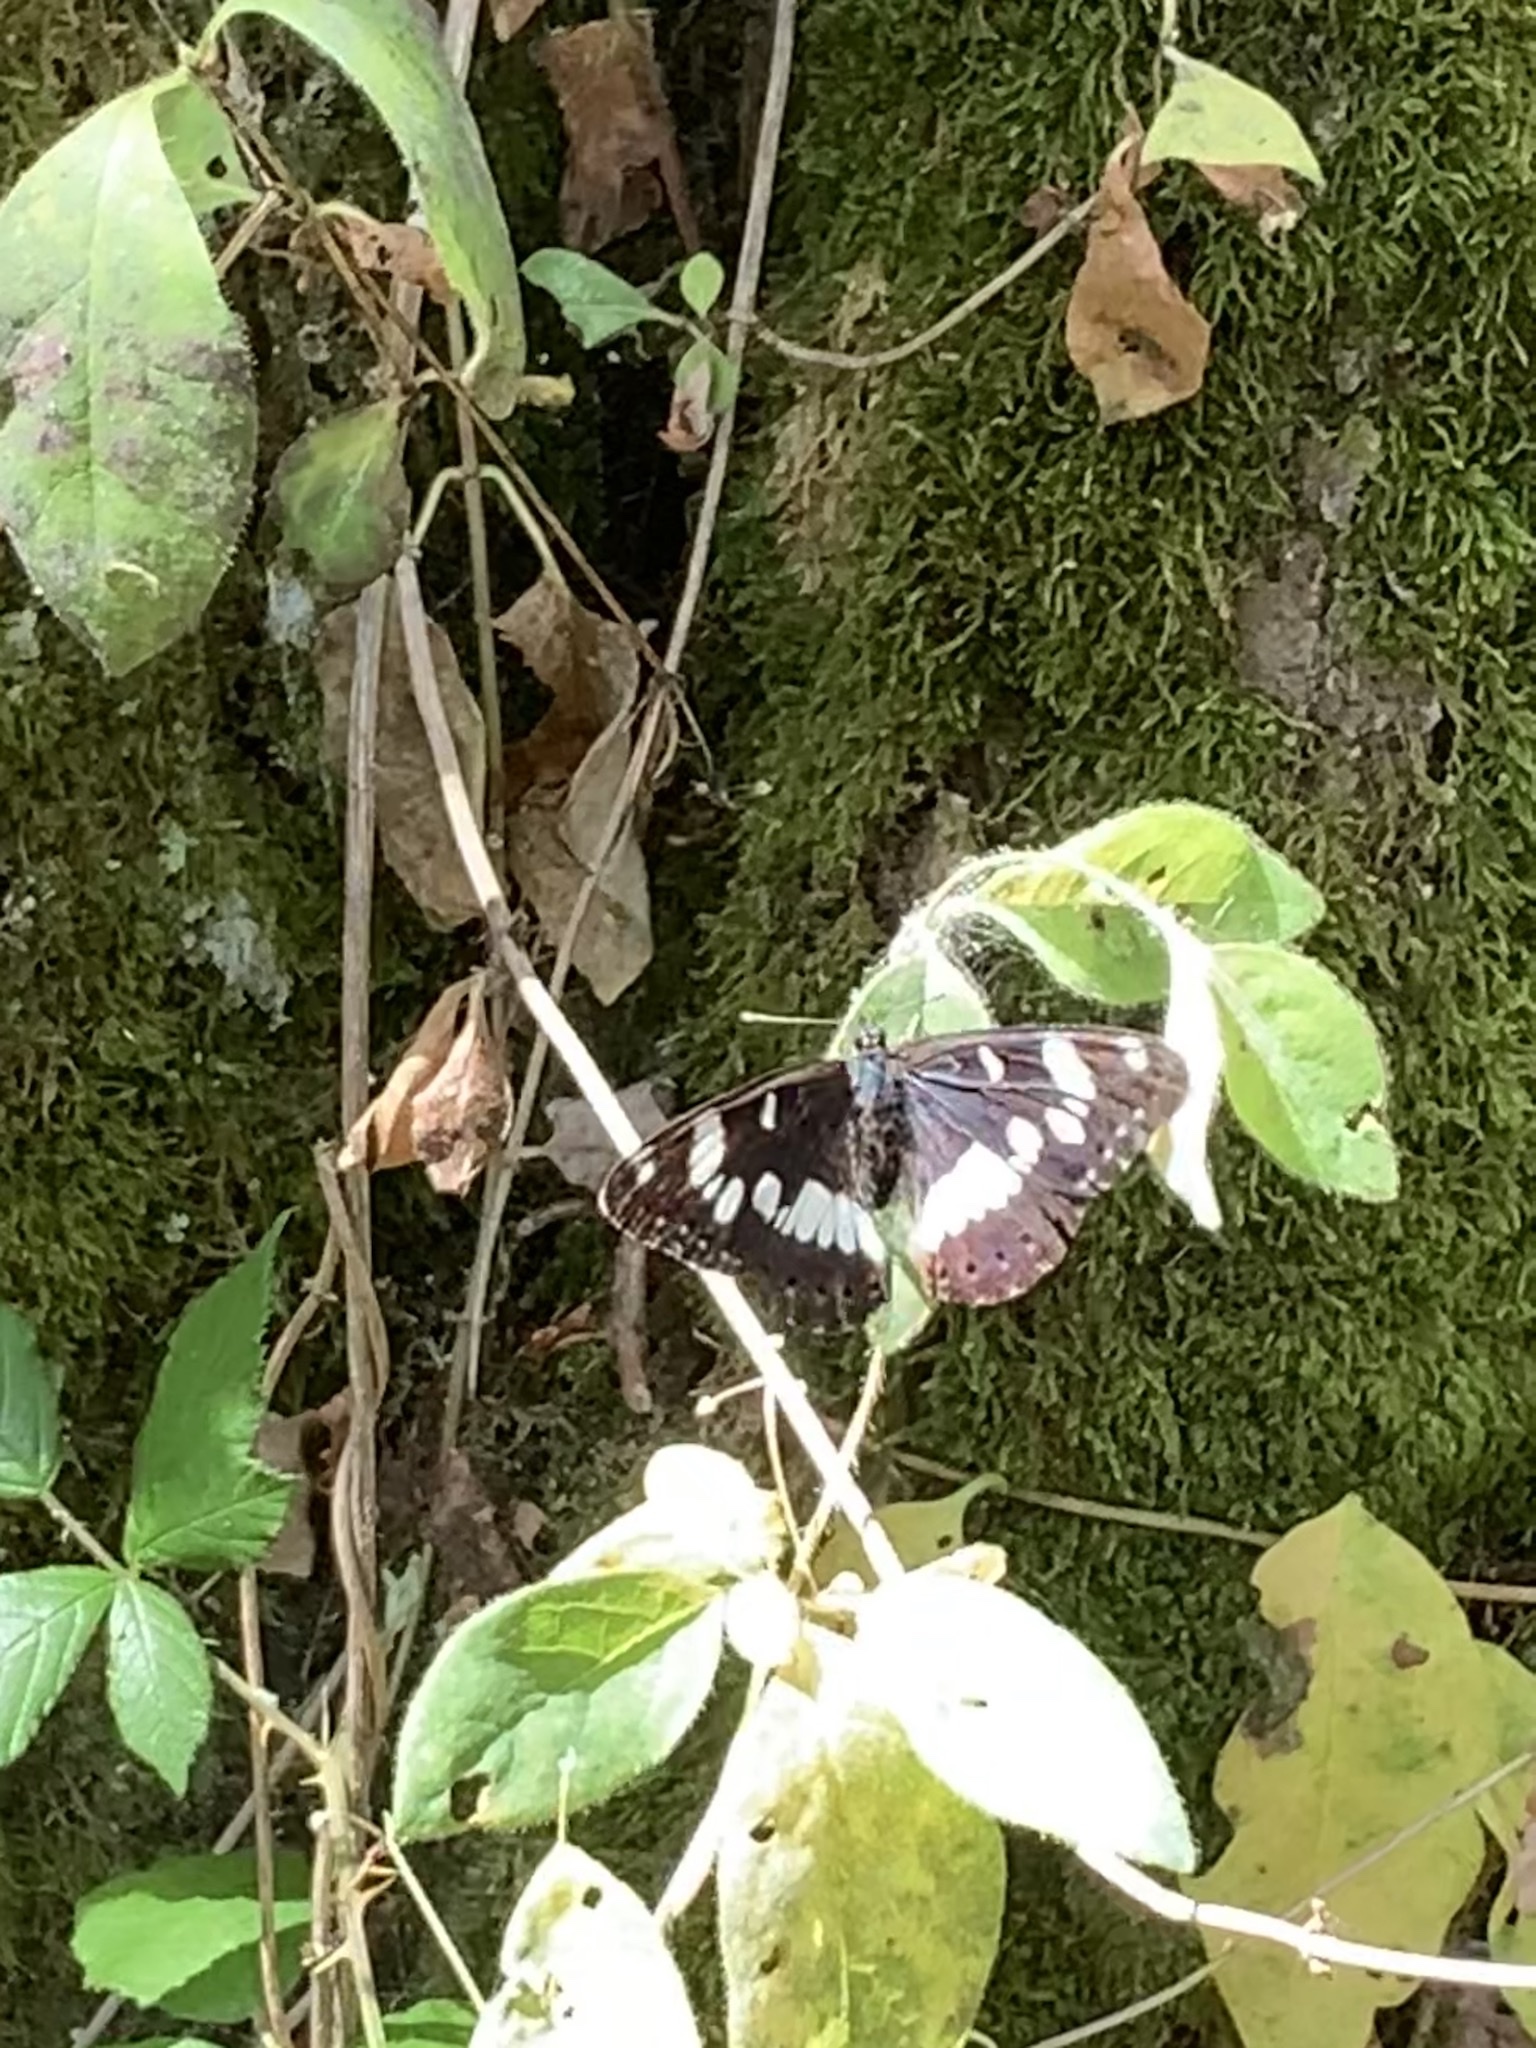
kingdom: Animalia
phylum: Arthropoda
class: Insecta
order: Lepidoptera
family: Nymphalidae
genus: Limenitis
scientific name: Limenitis reducta
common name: Southern white admiral
